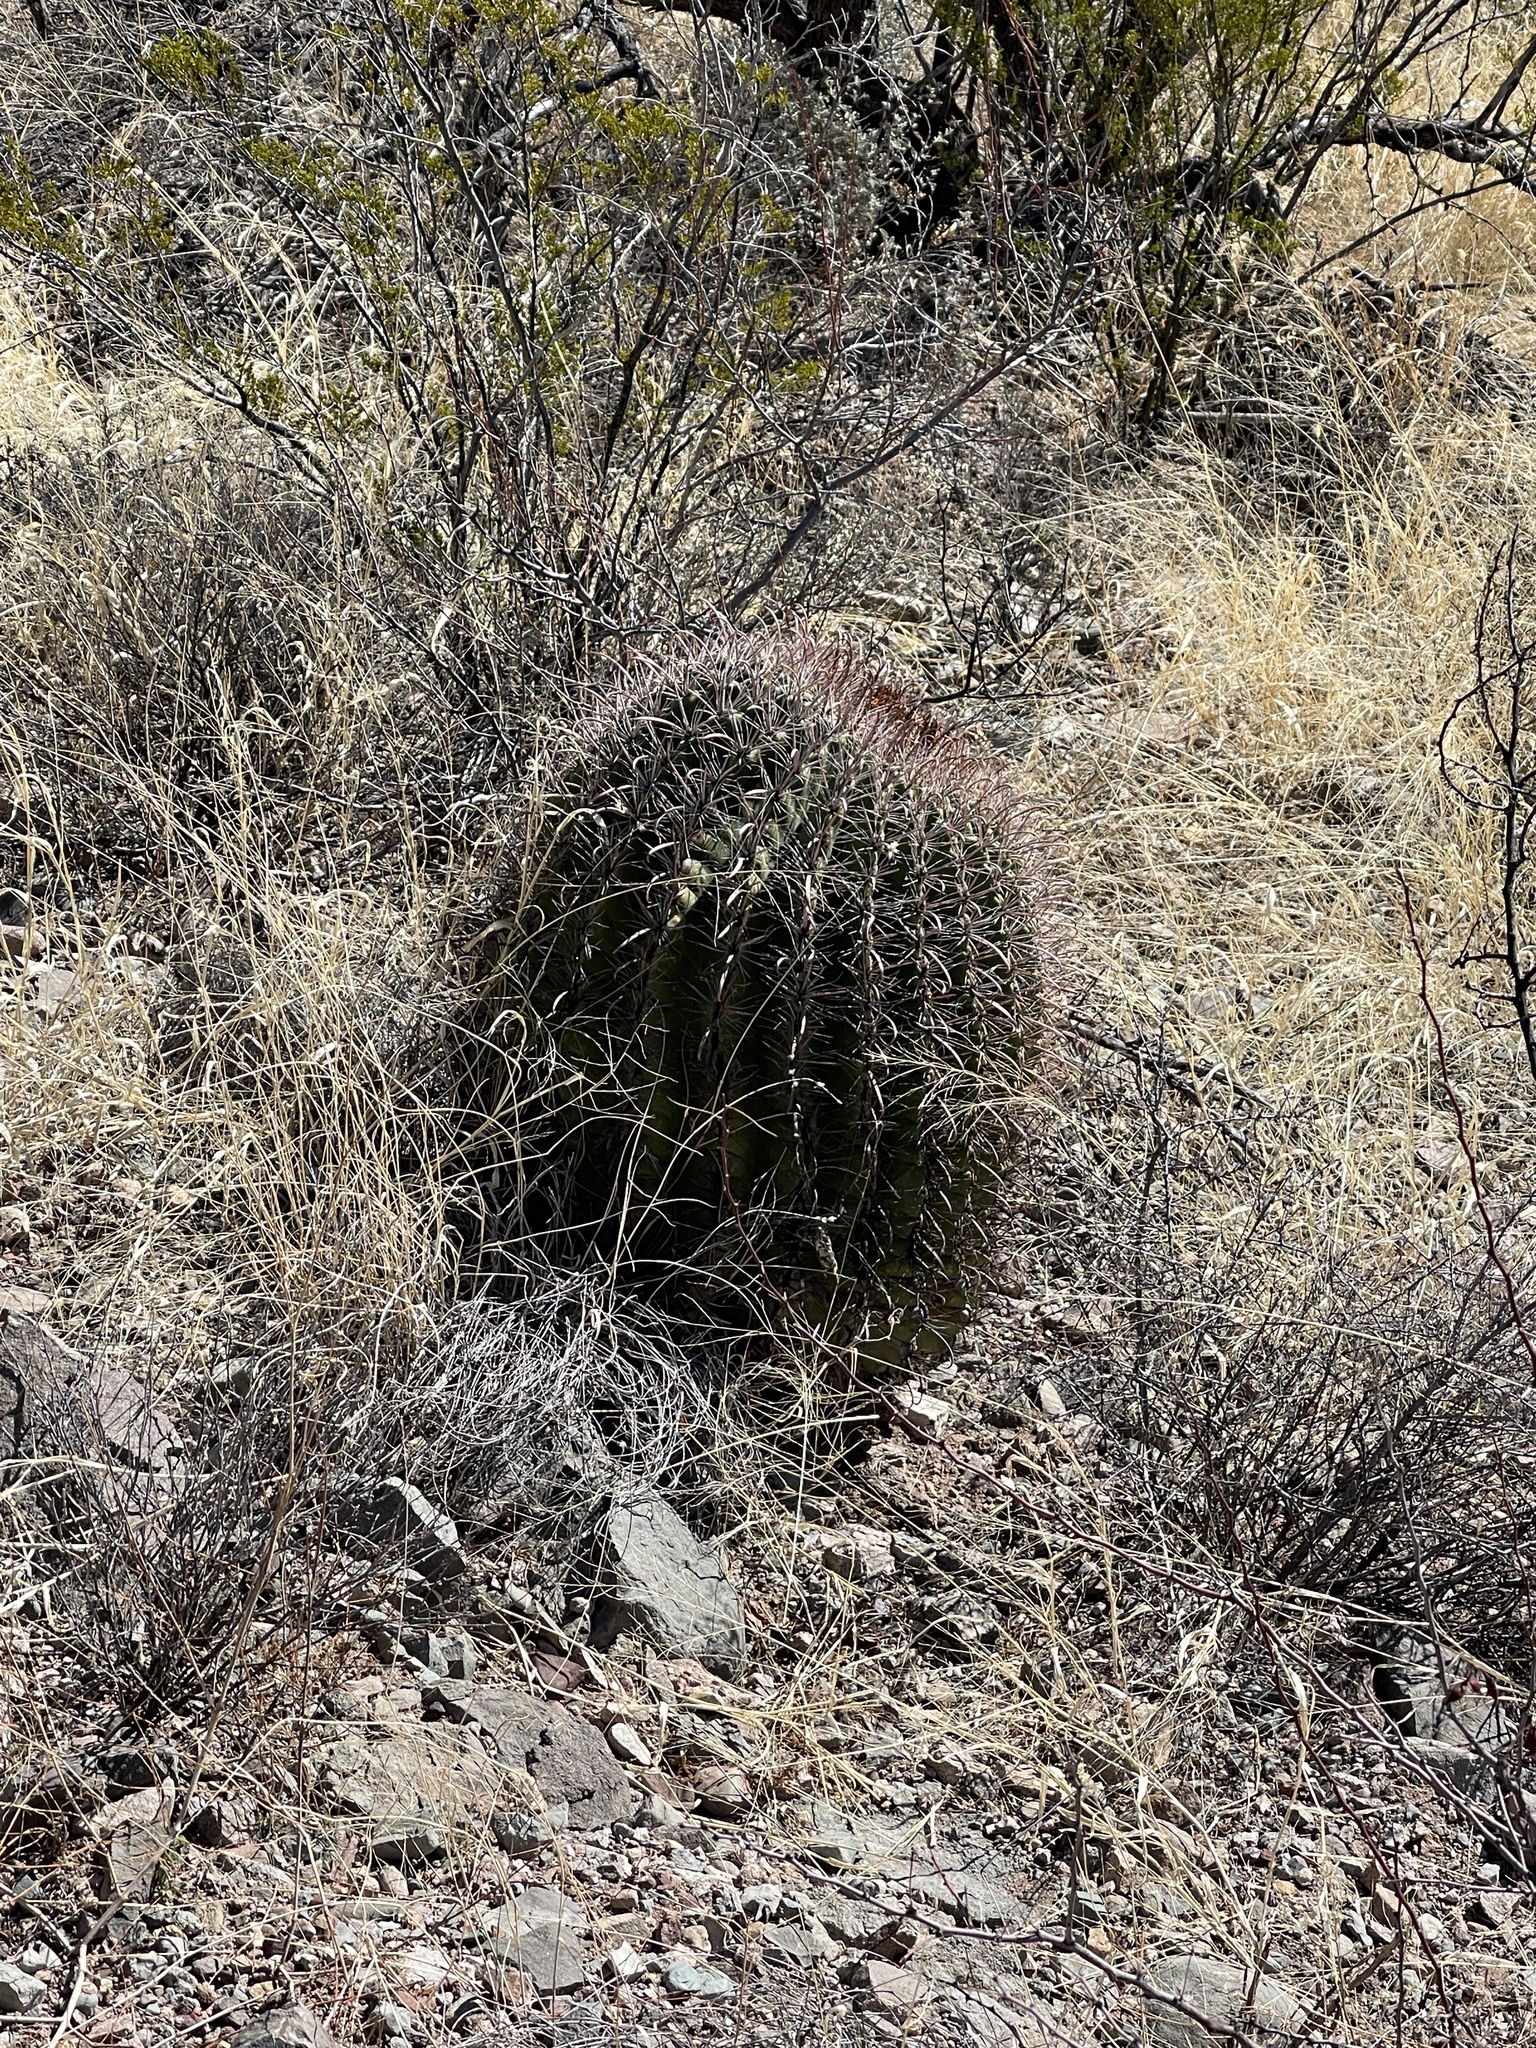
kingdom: Plantae
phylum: Tracheophyta
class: Magnoliopsida
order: Caryophyllales
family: Cactaceae
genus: Ferocactus
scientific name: Ferocactus wislizeni
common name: Candy barrel cactus
